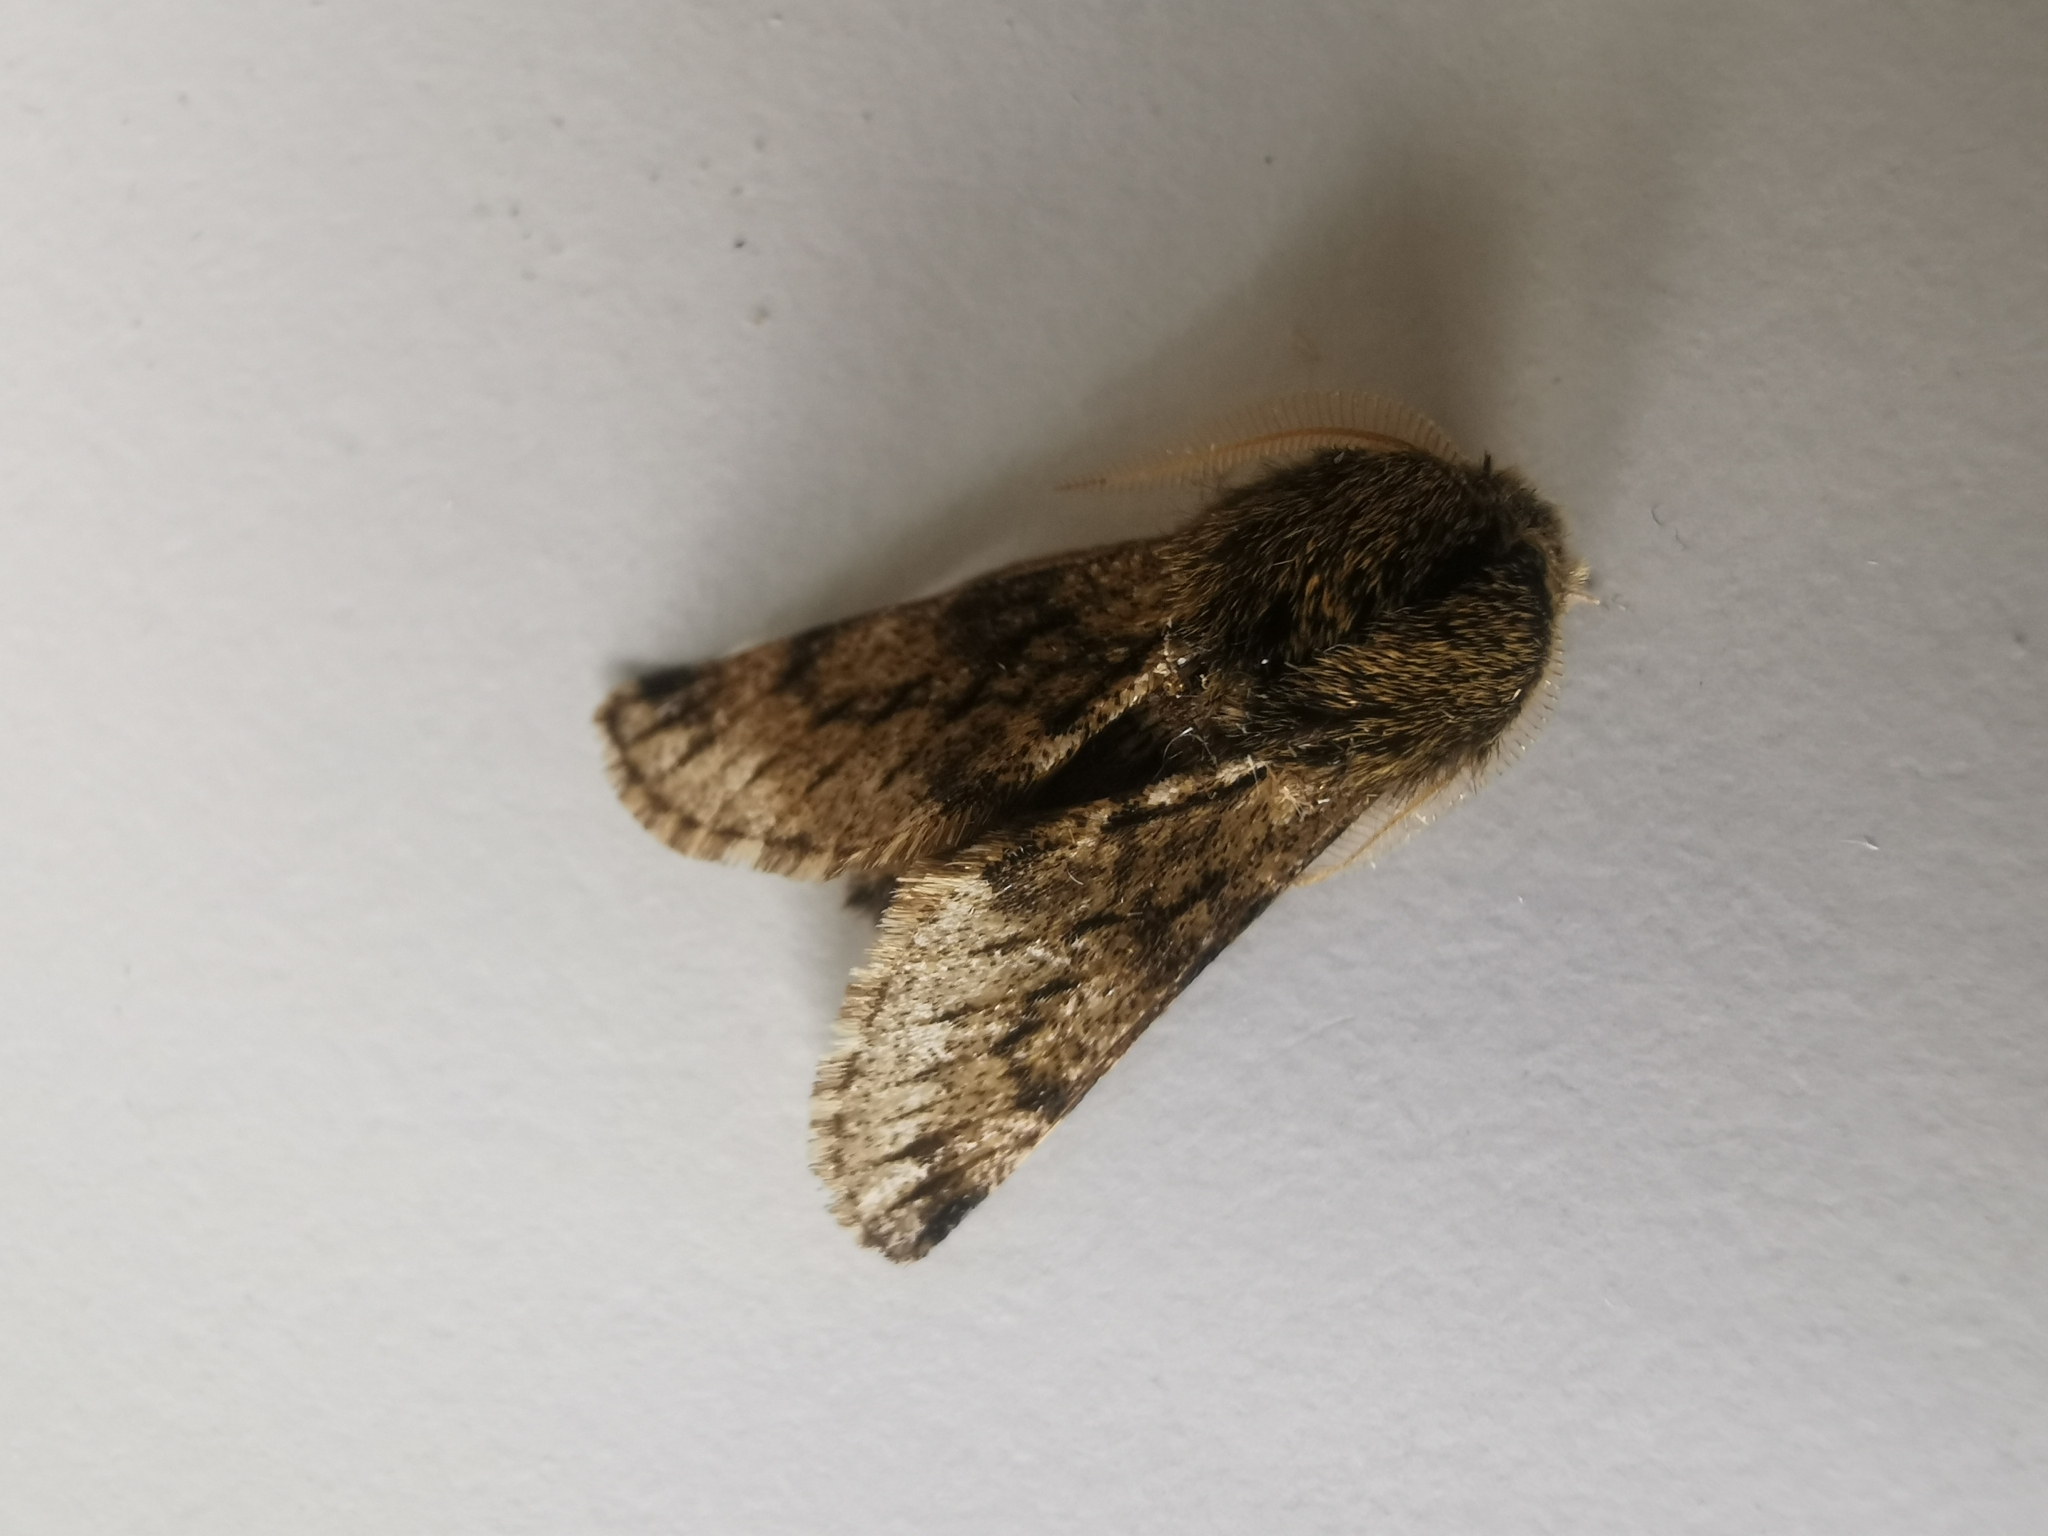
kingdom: Animalia
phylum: Arthropoda
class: Insecta
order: Lepidoptera
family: Geometridae
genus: Apocheima
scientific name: Apocheima hispidaria
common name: Small brindled beauty
